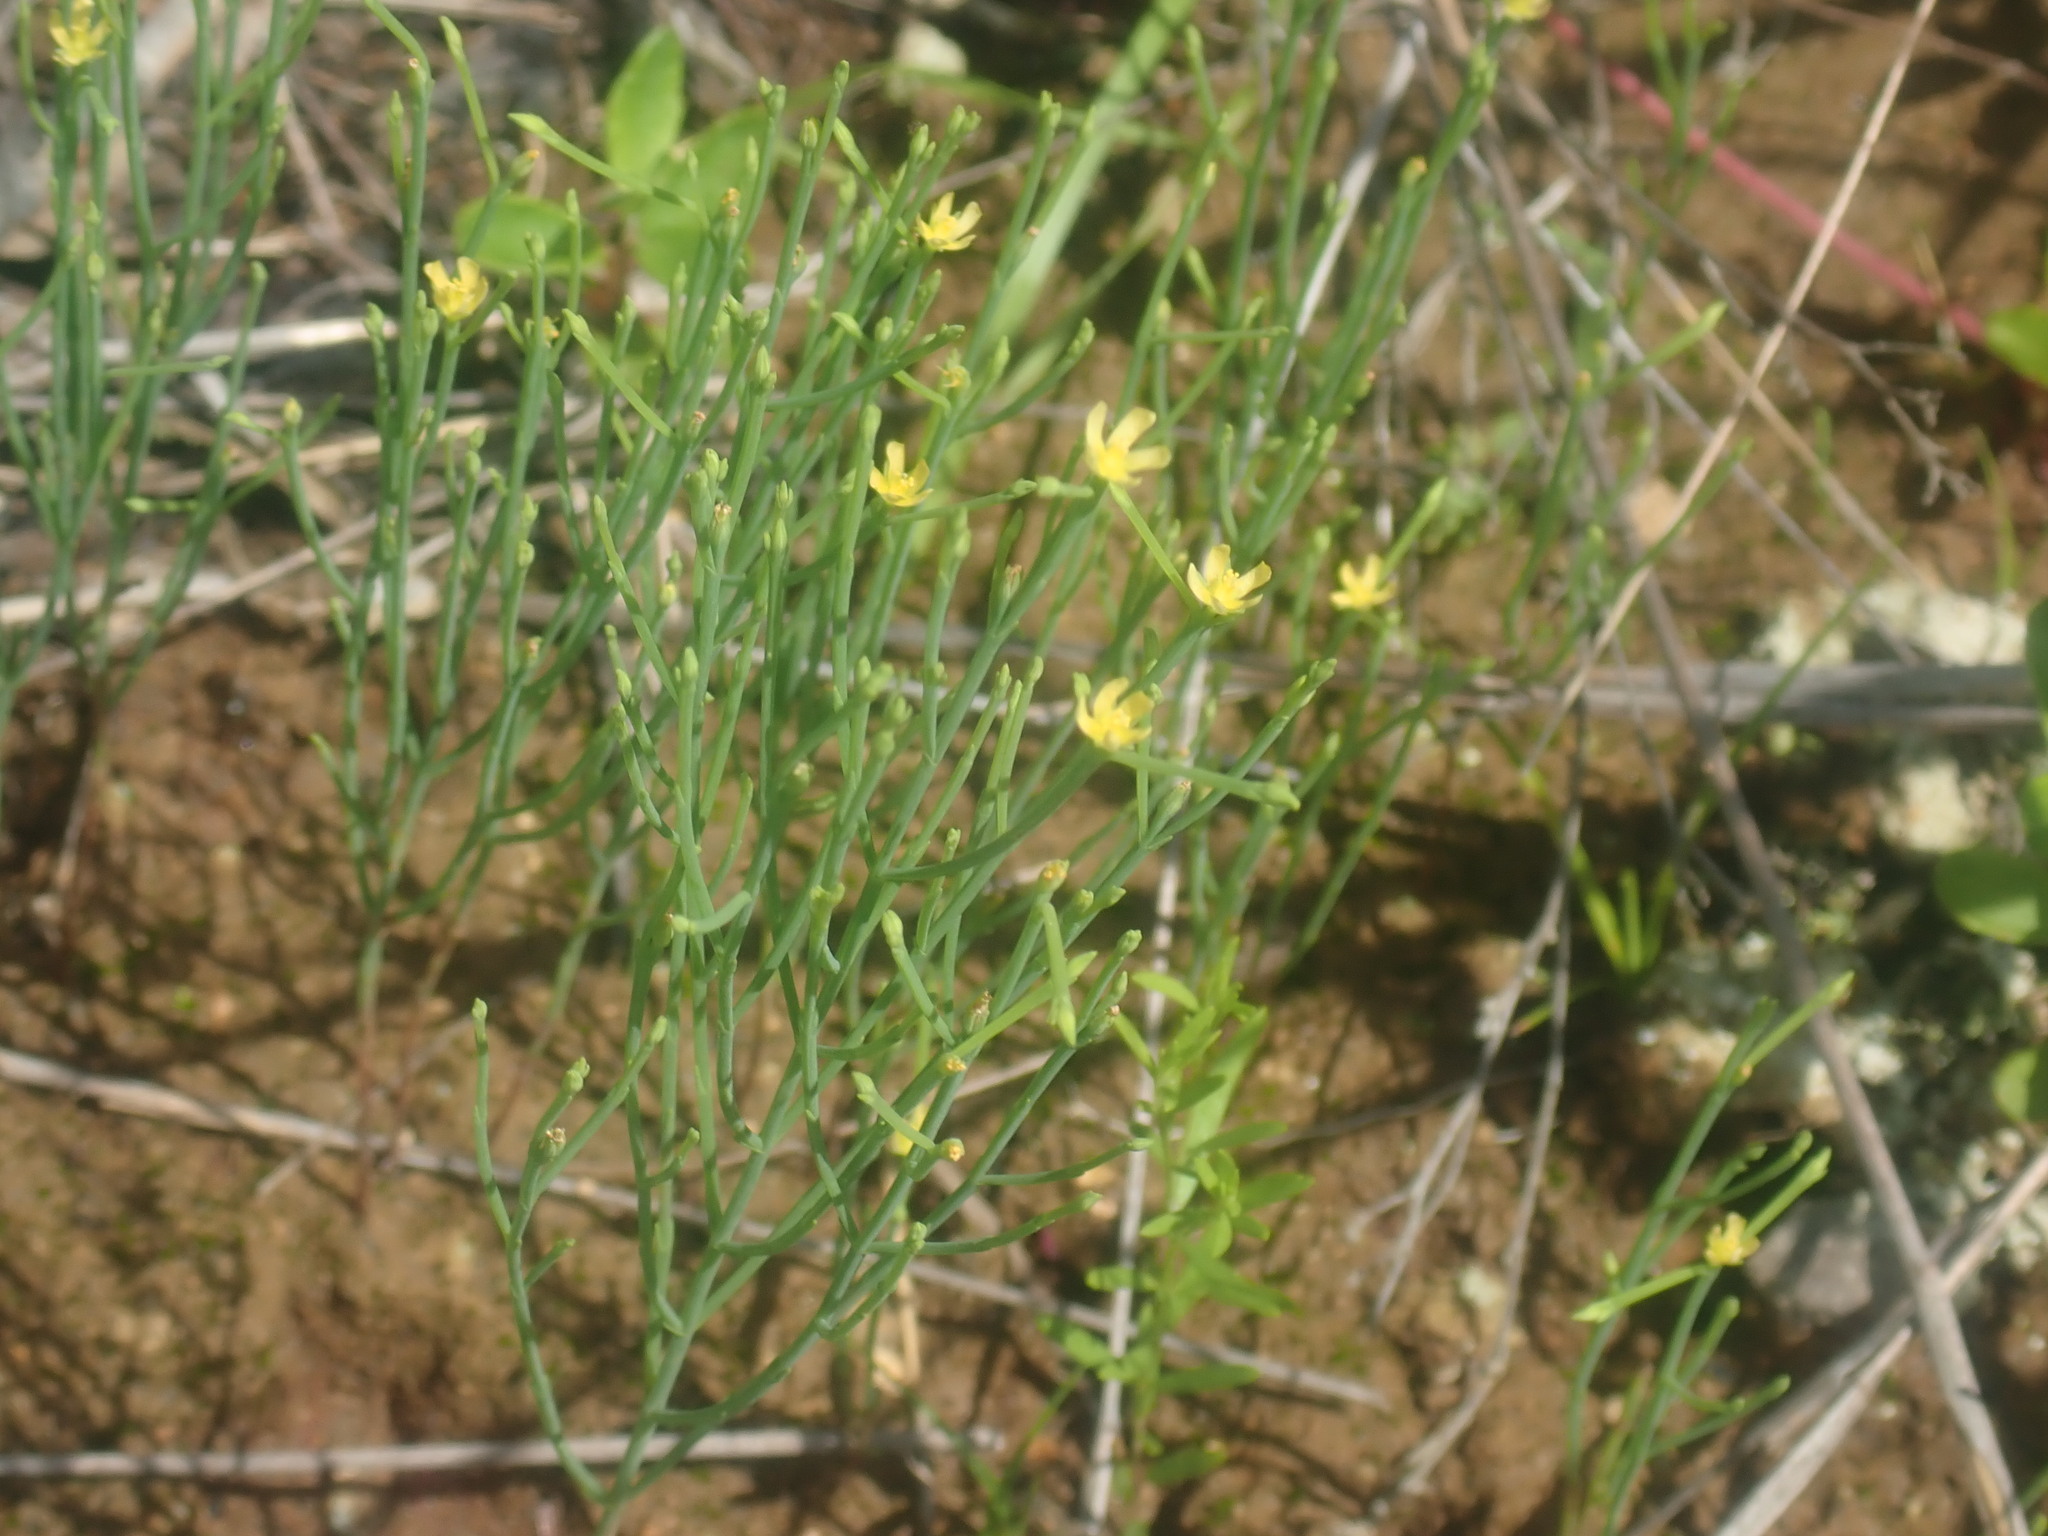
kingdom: Plantae
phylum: Tracheophyta
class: Magnoliopsida
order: Malpighiales
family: Hypericaceae
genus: Hypericum
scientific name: Hypericum gentianoides
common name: Gentian-leaved st. john's-wort
